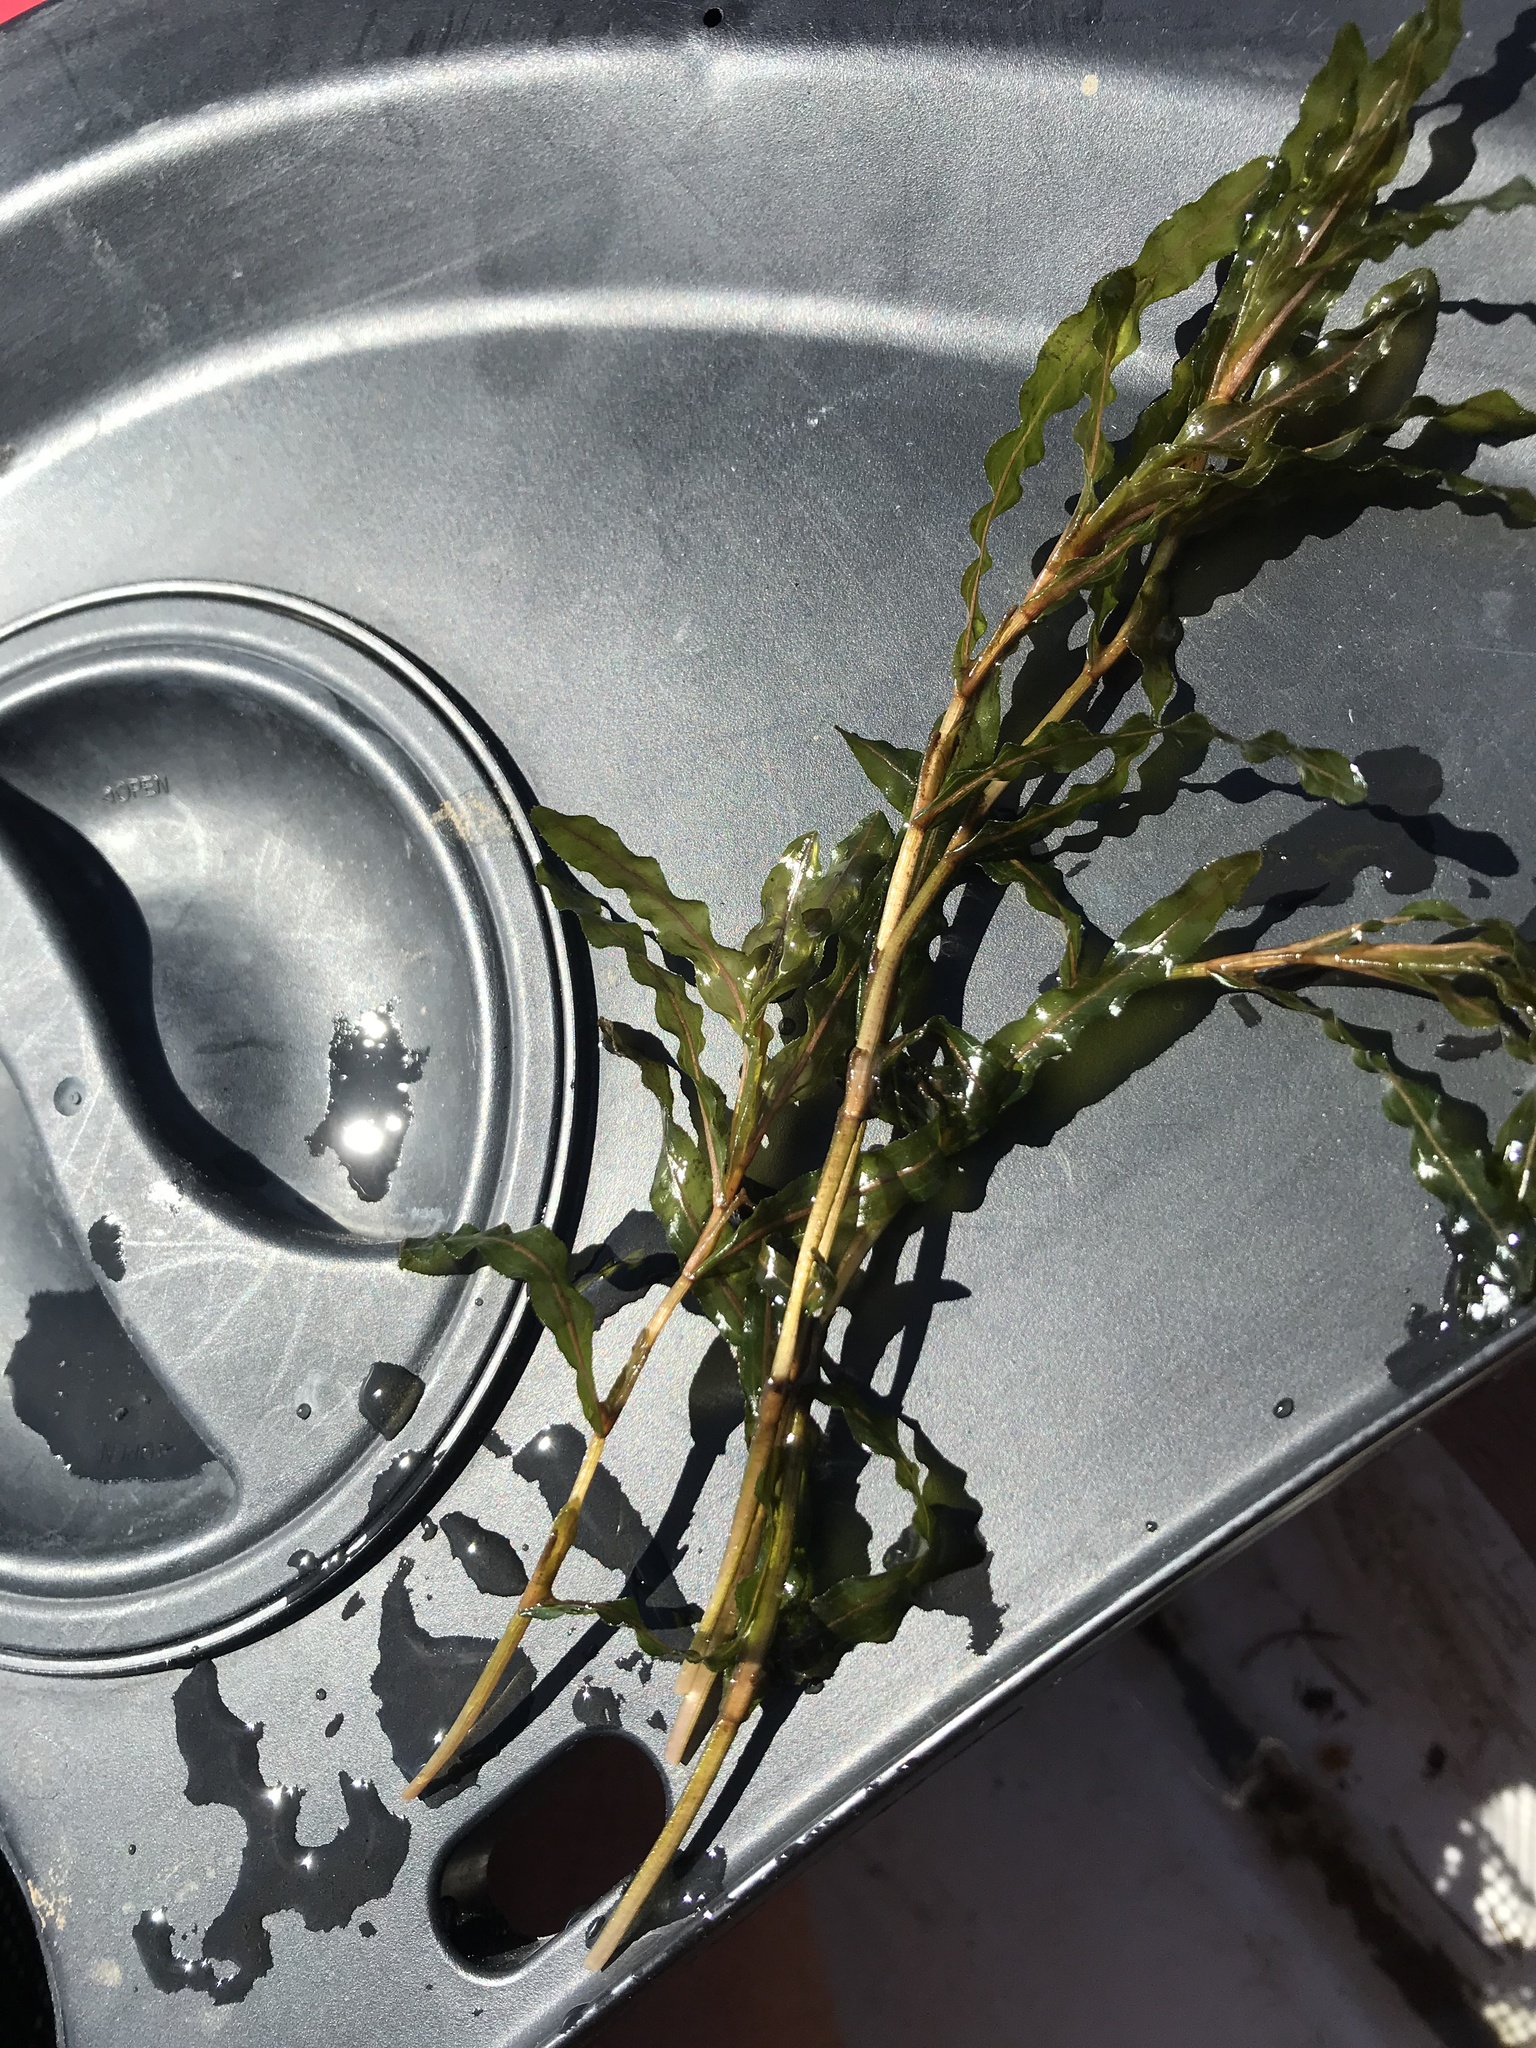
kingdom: Plantae
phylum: Tracheophyta
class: Liliopsida
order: Alismatales
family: Potamogetonaceae
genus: Potamogeton
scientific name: Potamogeton crispus
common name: Curled pondweed
